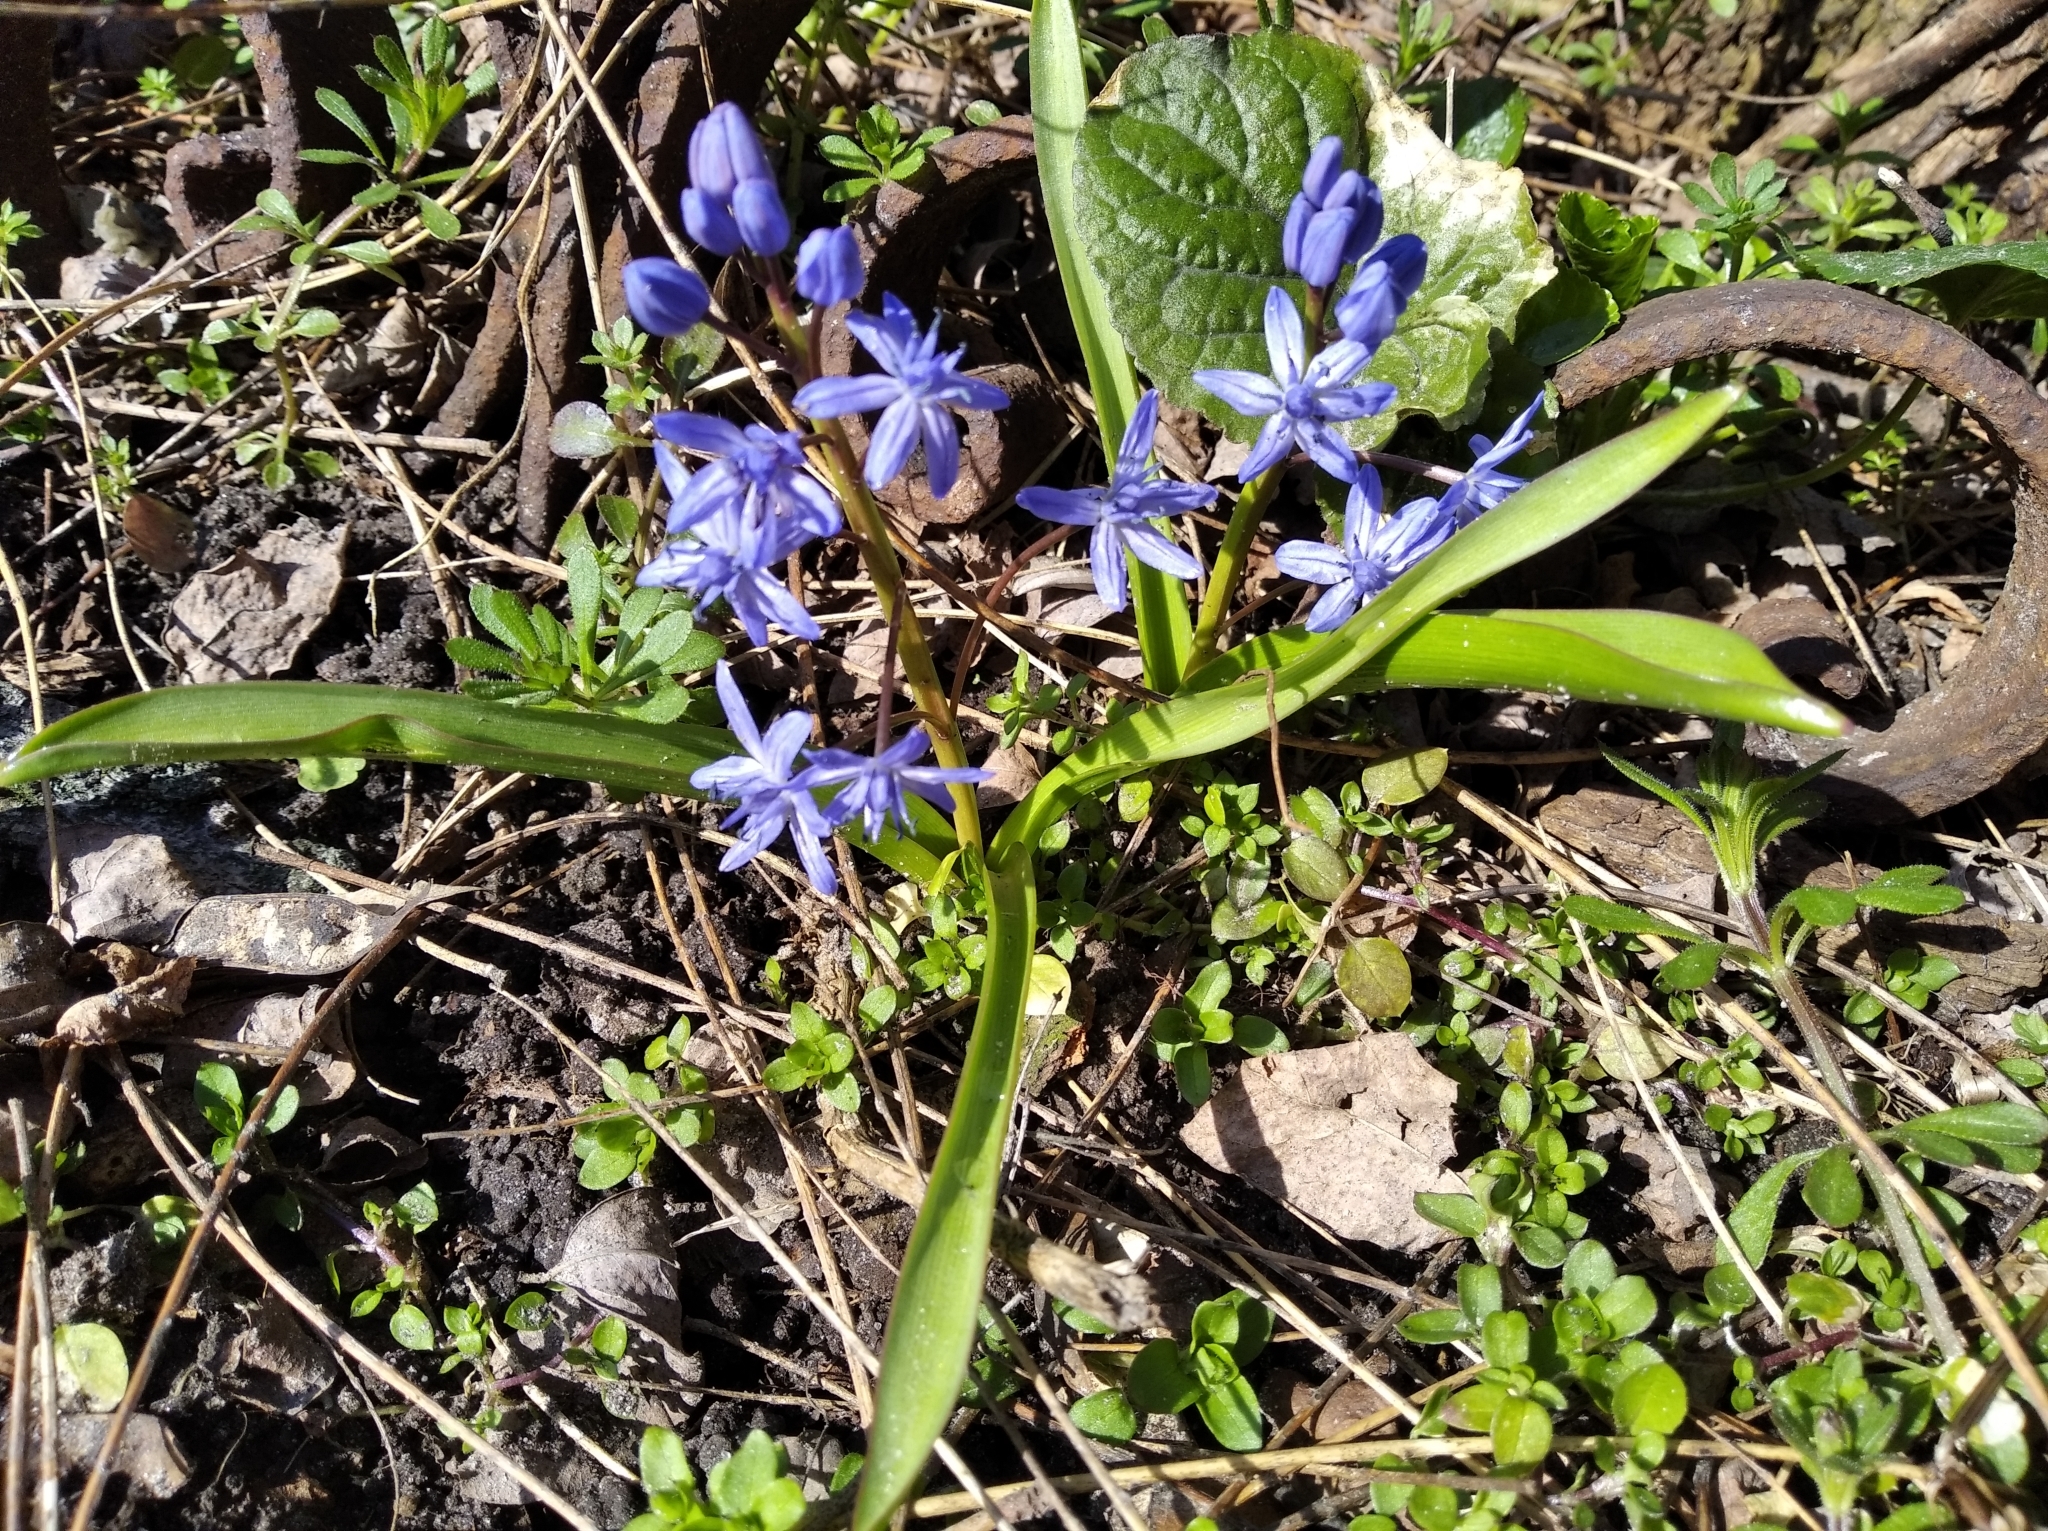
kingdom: Plantae
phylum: Tracheophyta
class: Liliopsida
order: Asparagales
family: Asparagaceae
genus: Scilla
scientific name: Scilla bifolia
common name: Alpine squill
